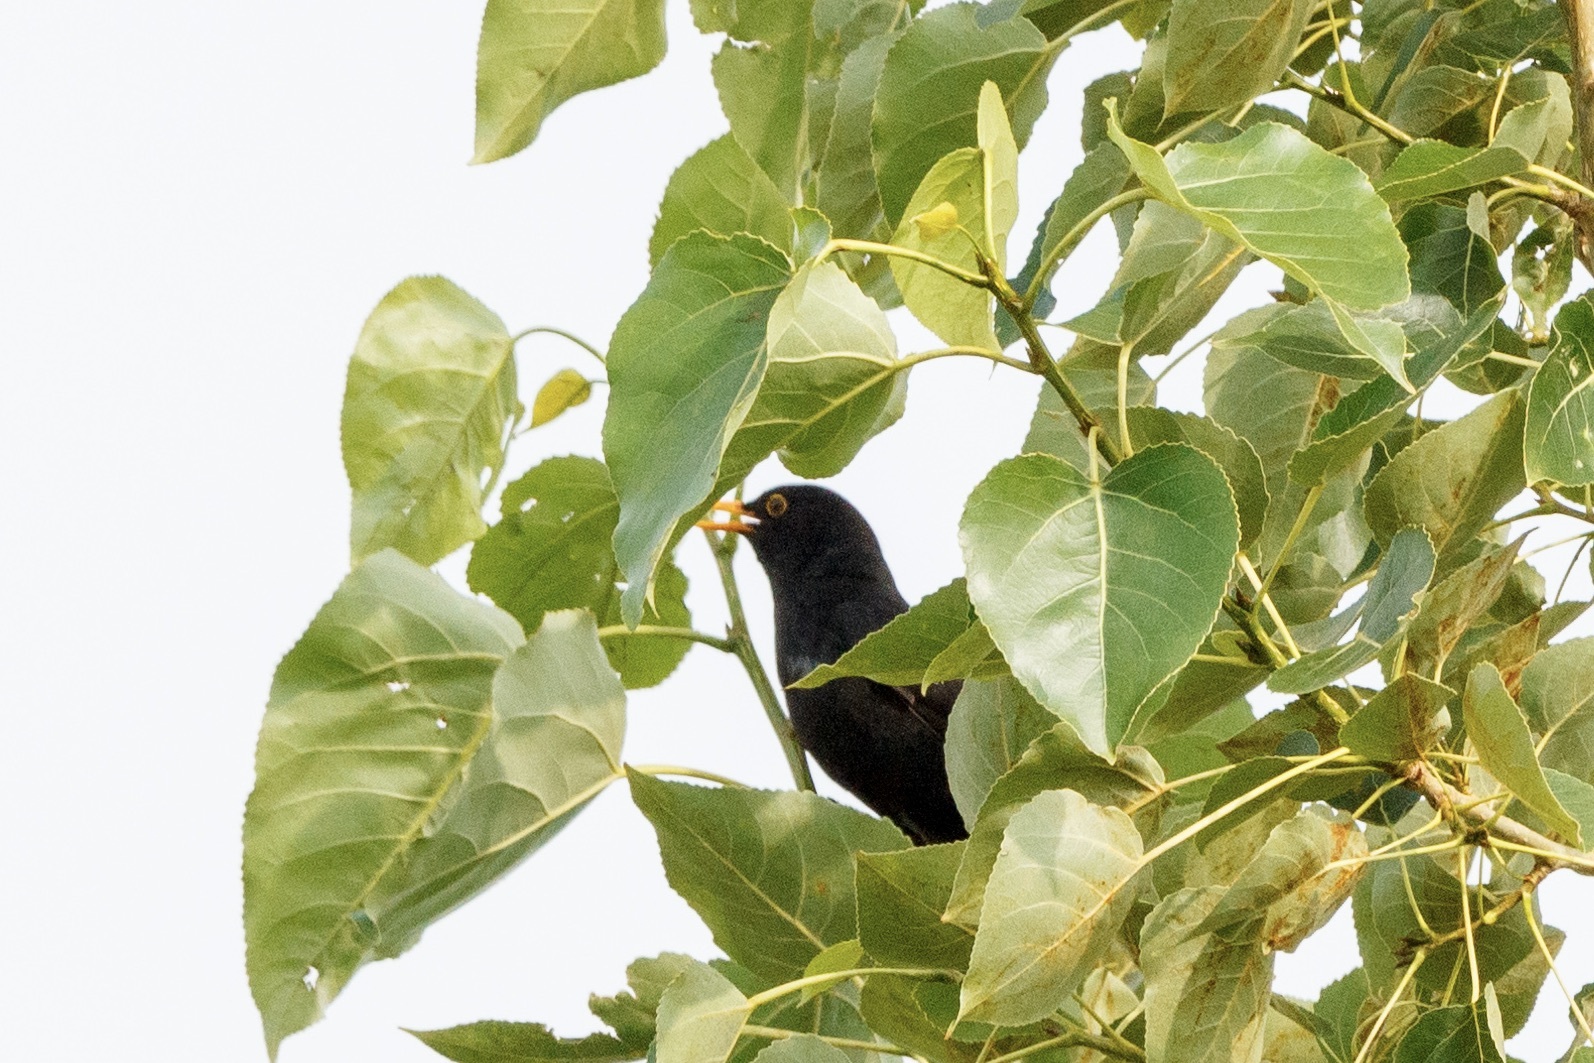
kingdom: Animalia
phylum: Chordata
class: Aves
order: Passeriformes
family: Turdidae
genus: Turdus
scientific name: Turdus merula
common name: Common blackbird
